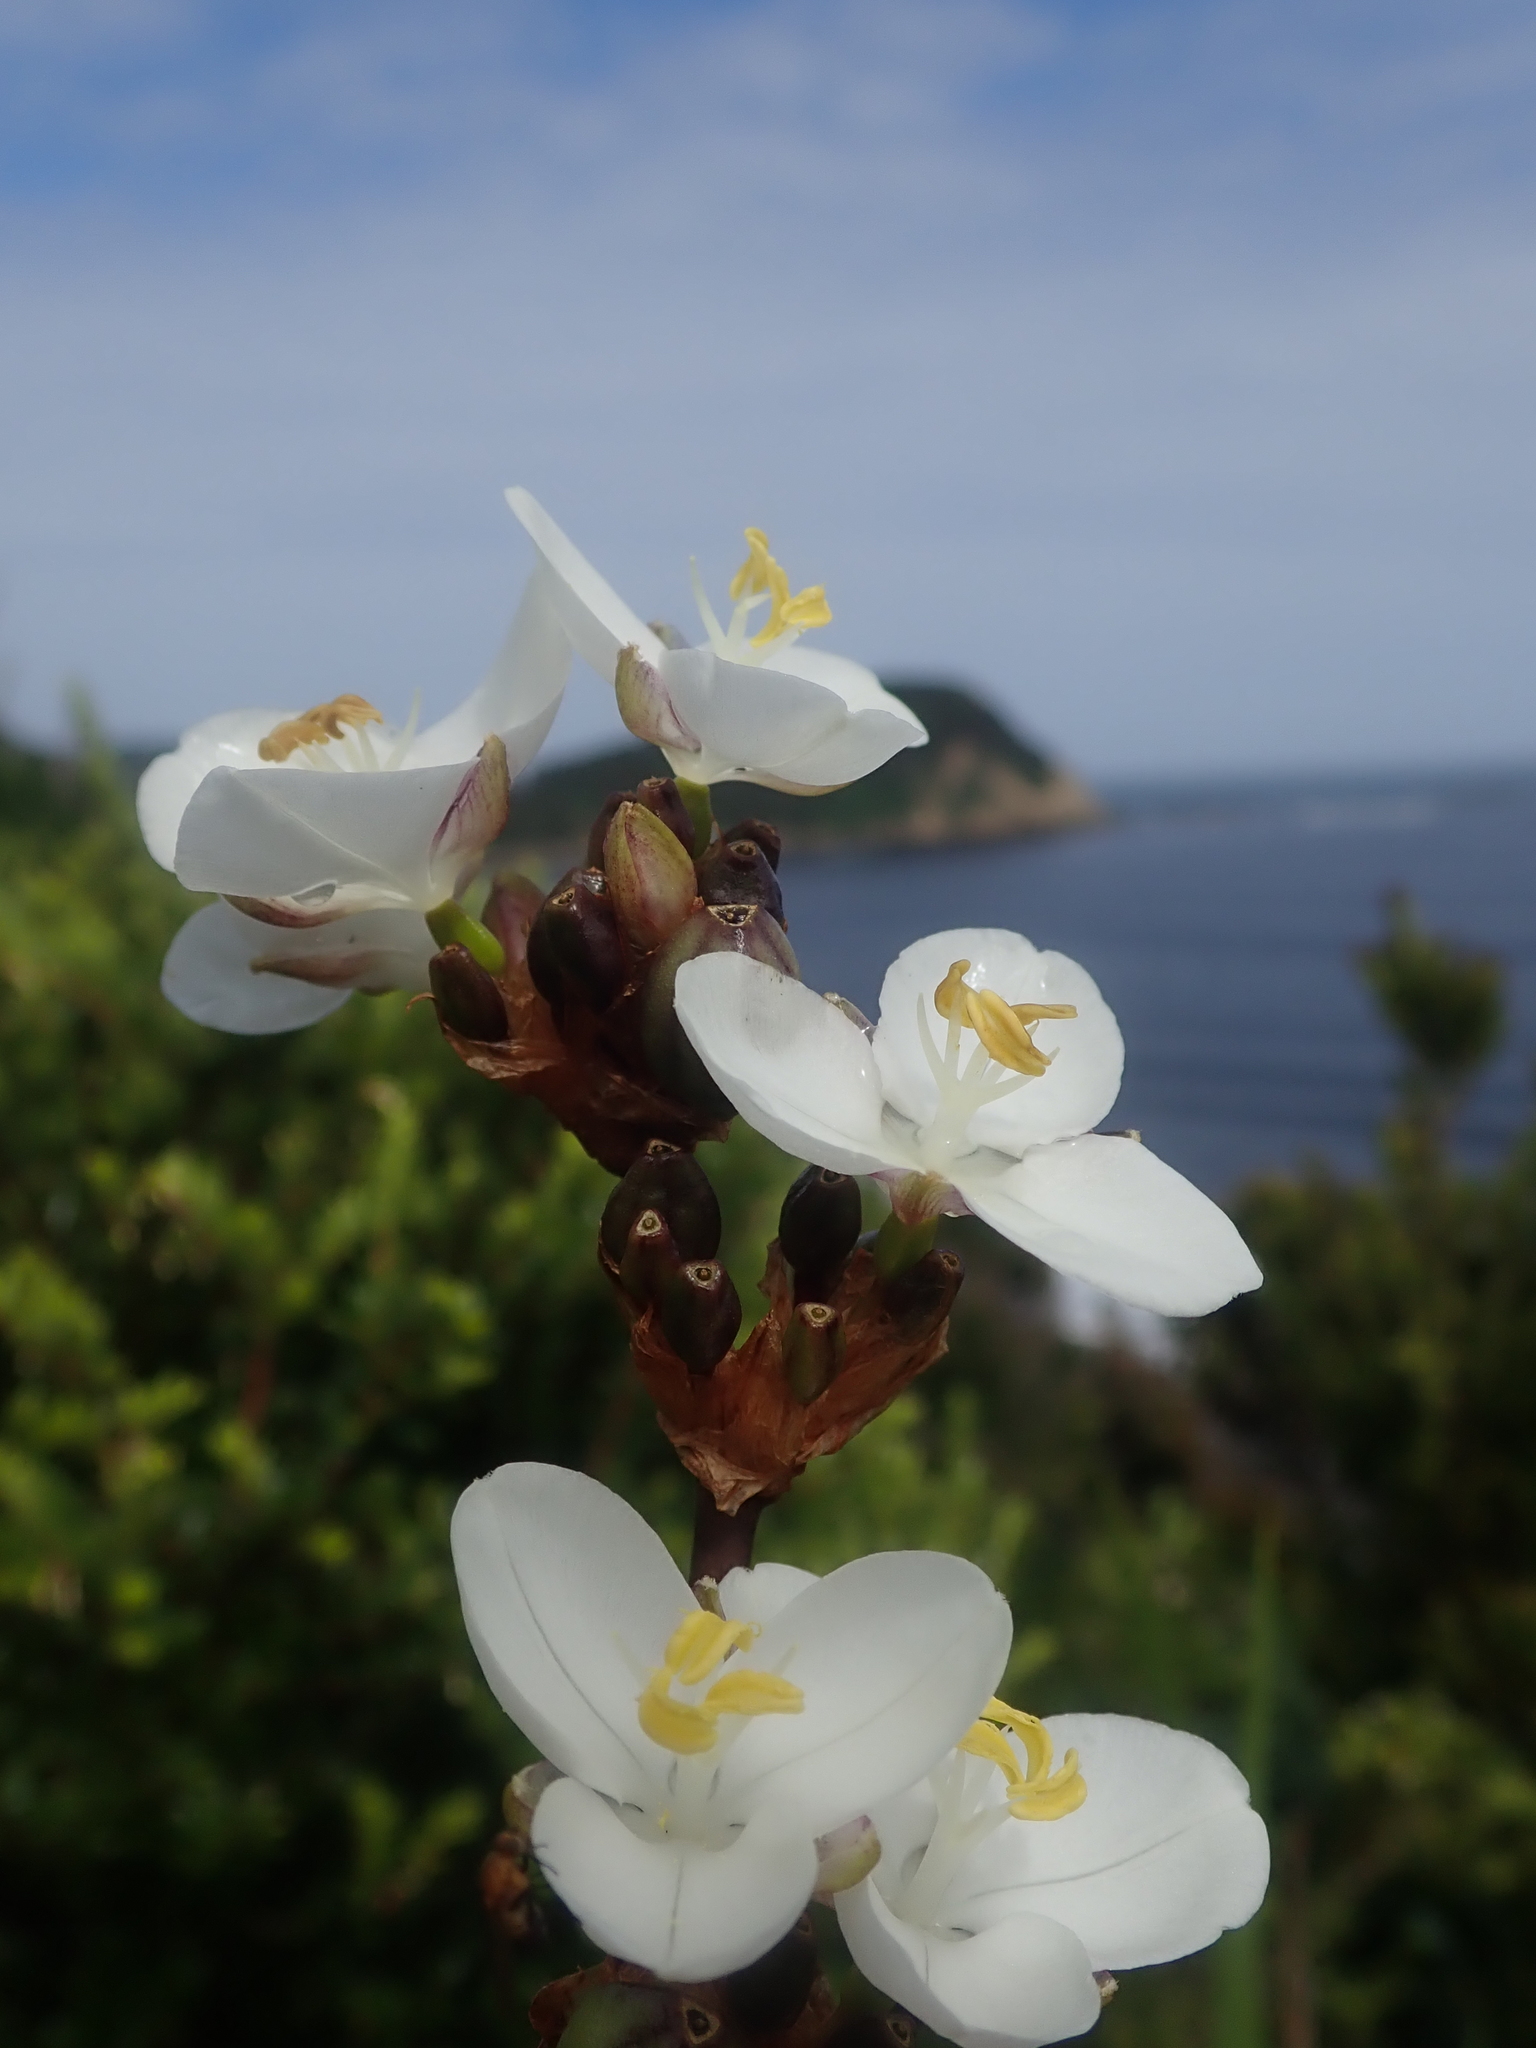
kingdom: Plantae
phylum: Tracheophyta
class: Liliopsida
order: Asparagales
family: Iridaceae
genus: Libertia
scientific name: Libertia chilensis
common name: Satin flower
